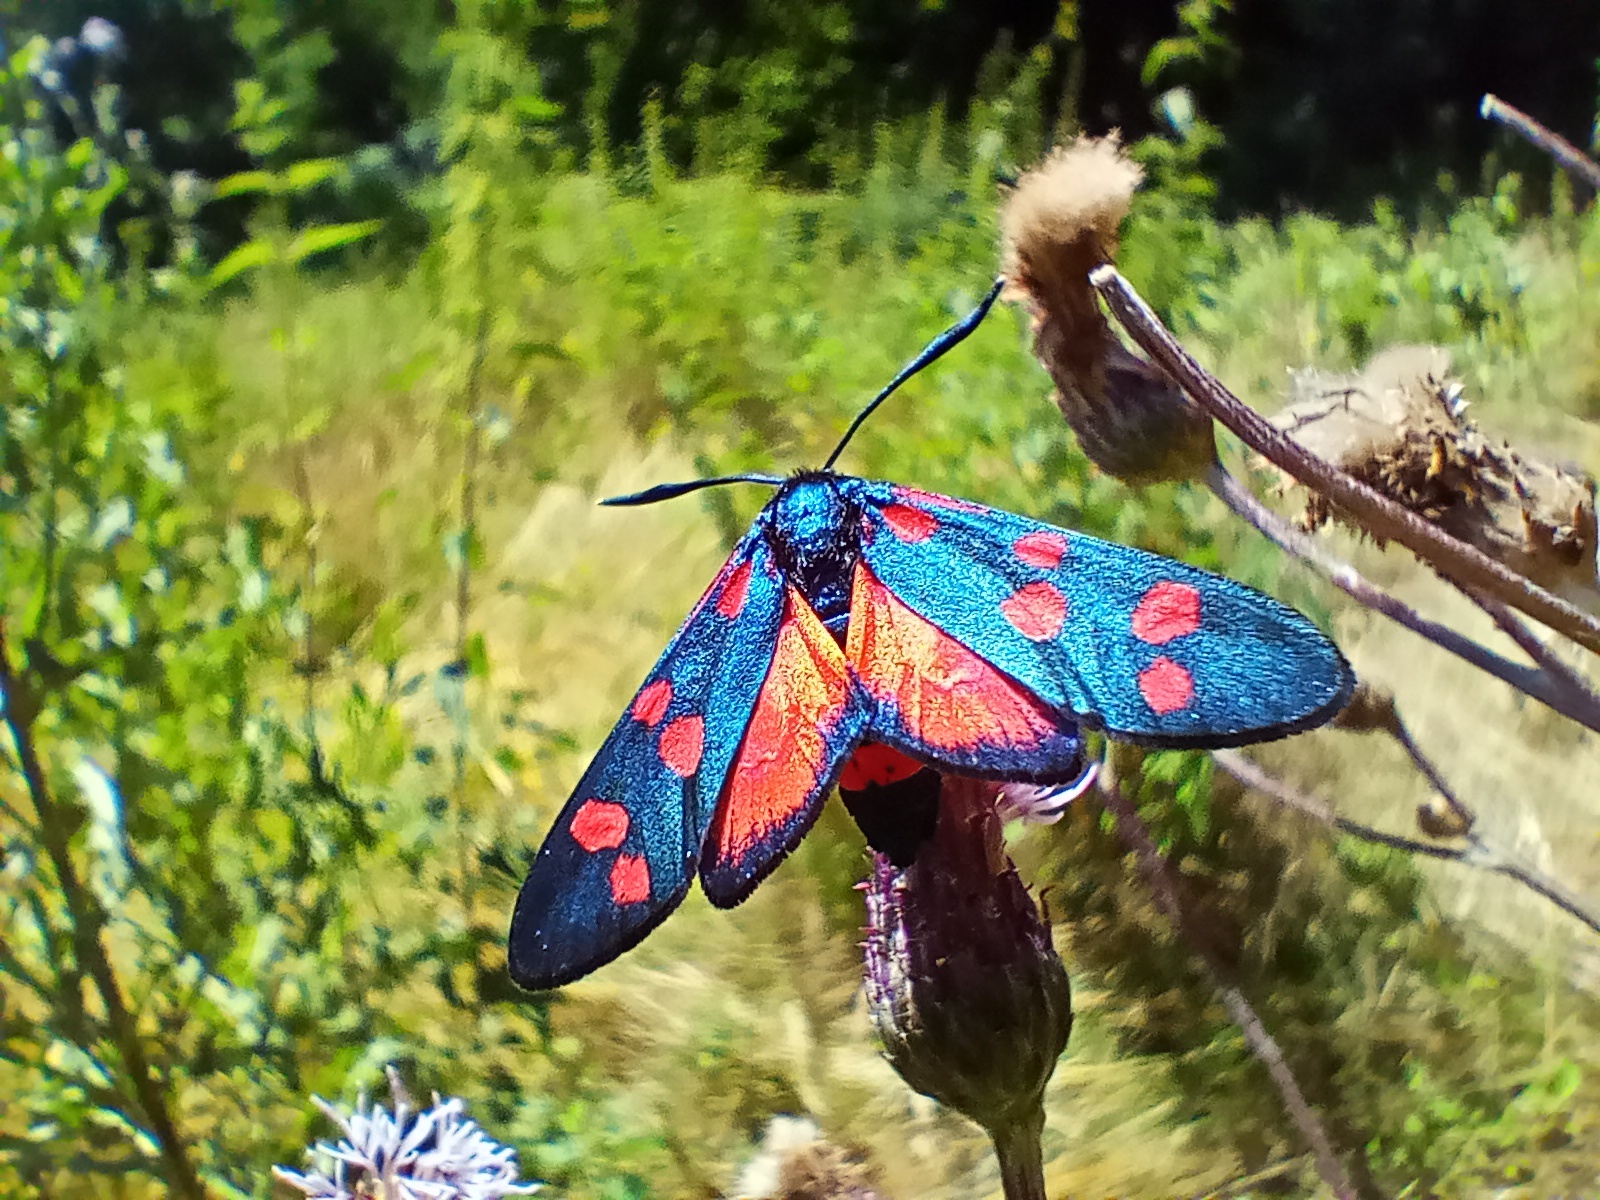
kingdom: Animalia
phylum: Arthropoda
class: Insecta
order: Lepidoptera
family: Zygaenidae
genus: Zygaena
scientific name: Zygaena ephialtes
